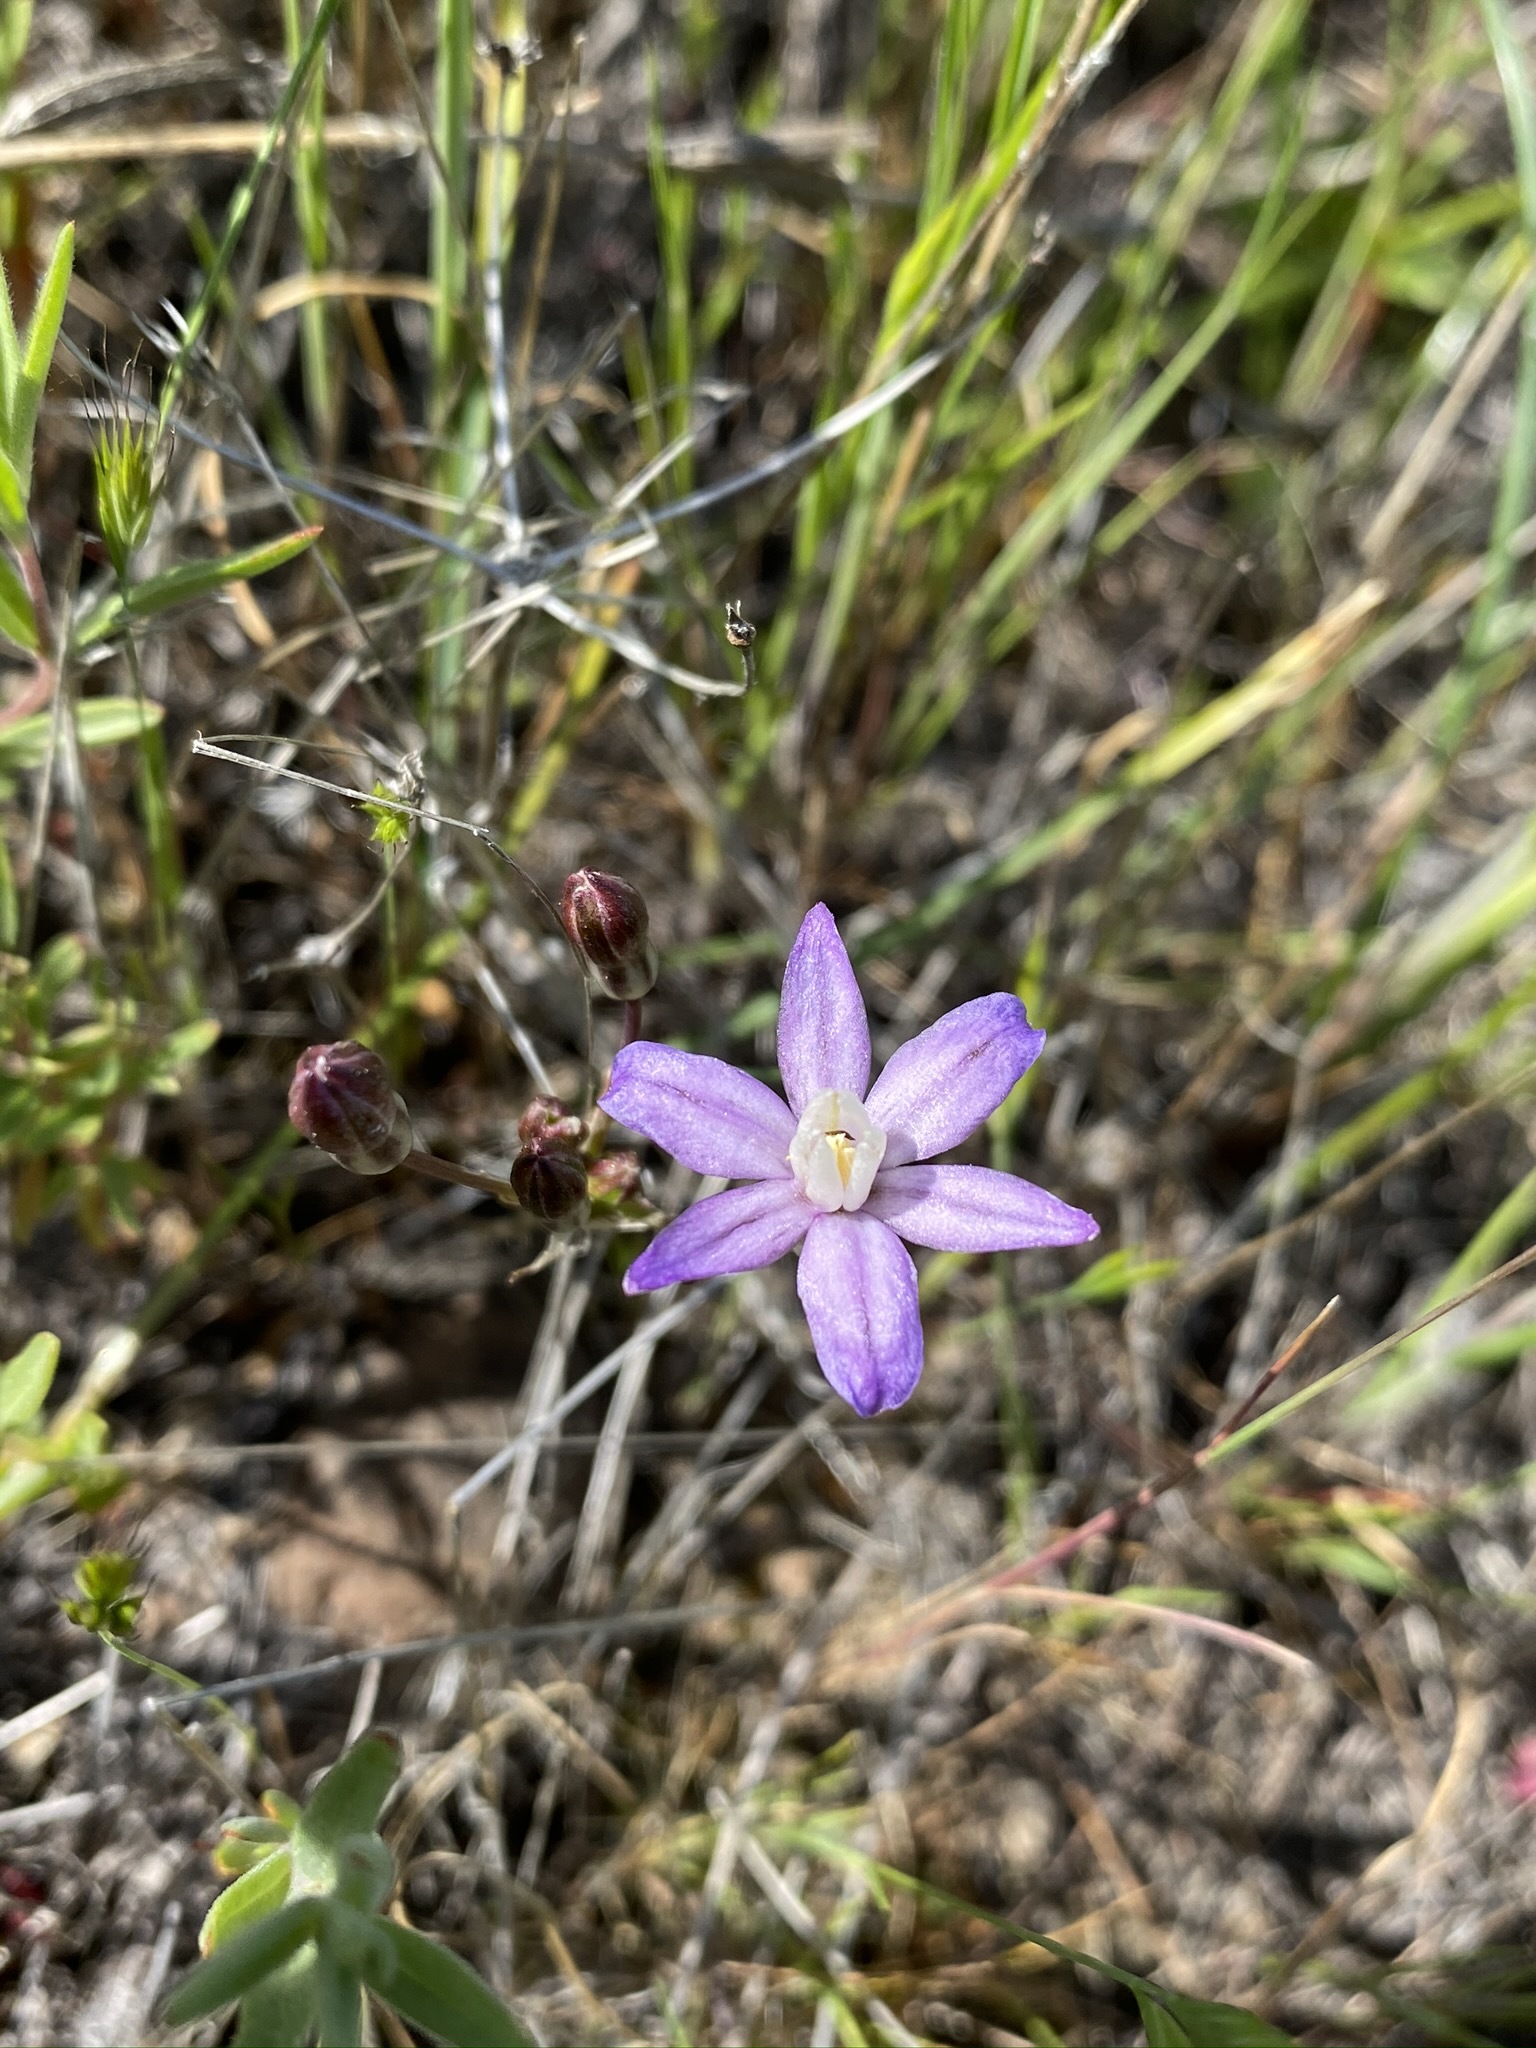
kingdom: Plantae
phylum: Tracheophyta
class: Liliopsida
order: Asparagales
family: Asparagaceae
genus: Brodiaea
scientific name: Brodiaea nana
